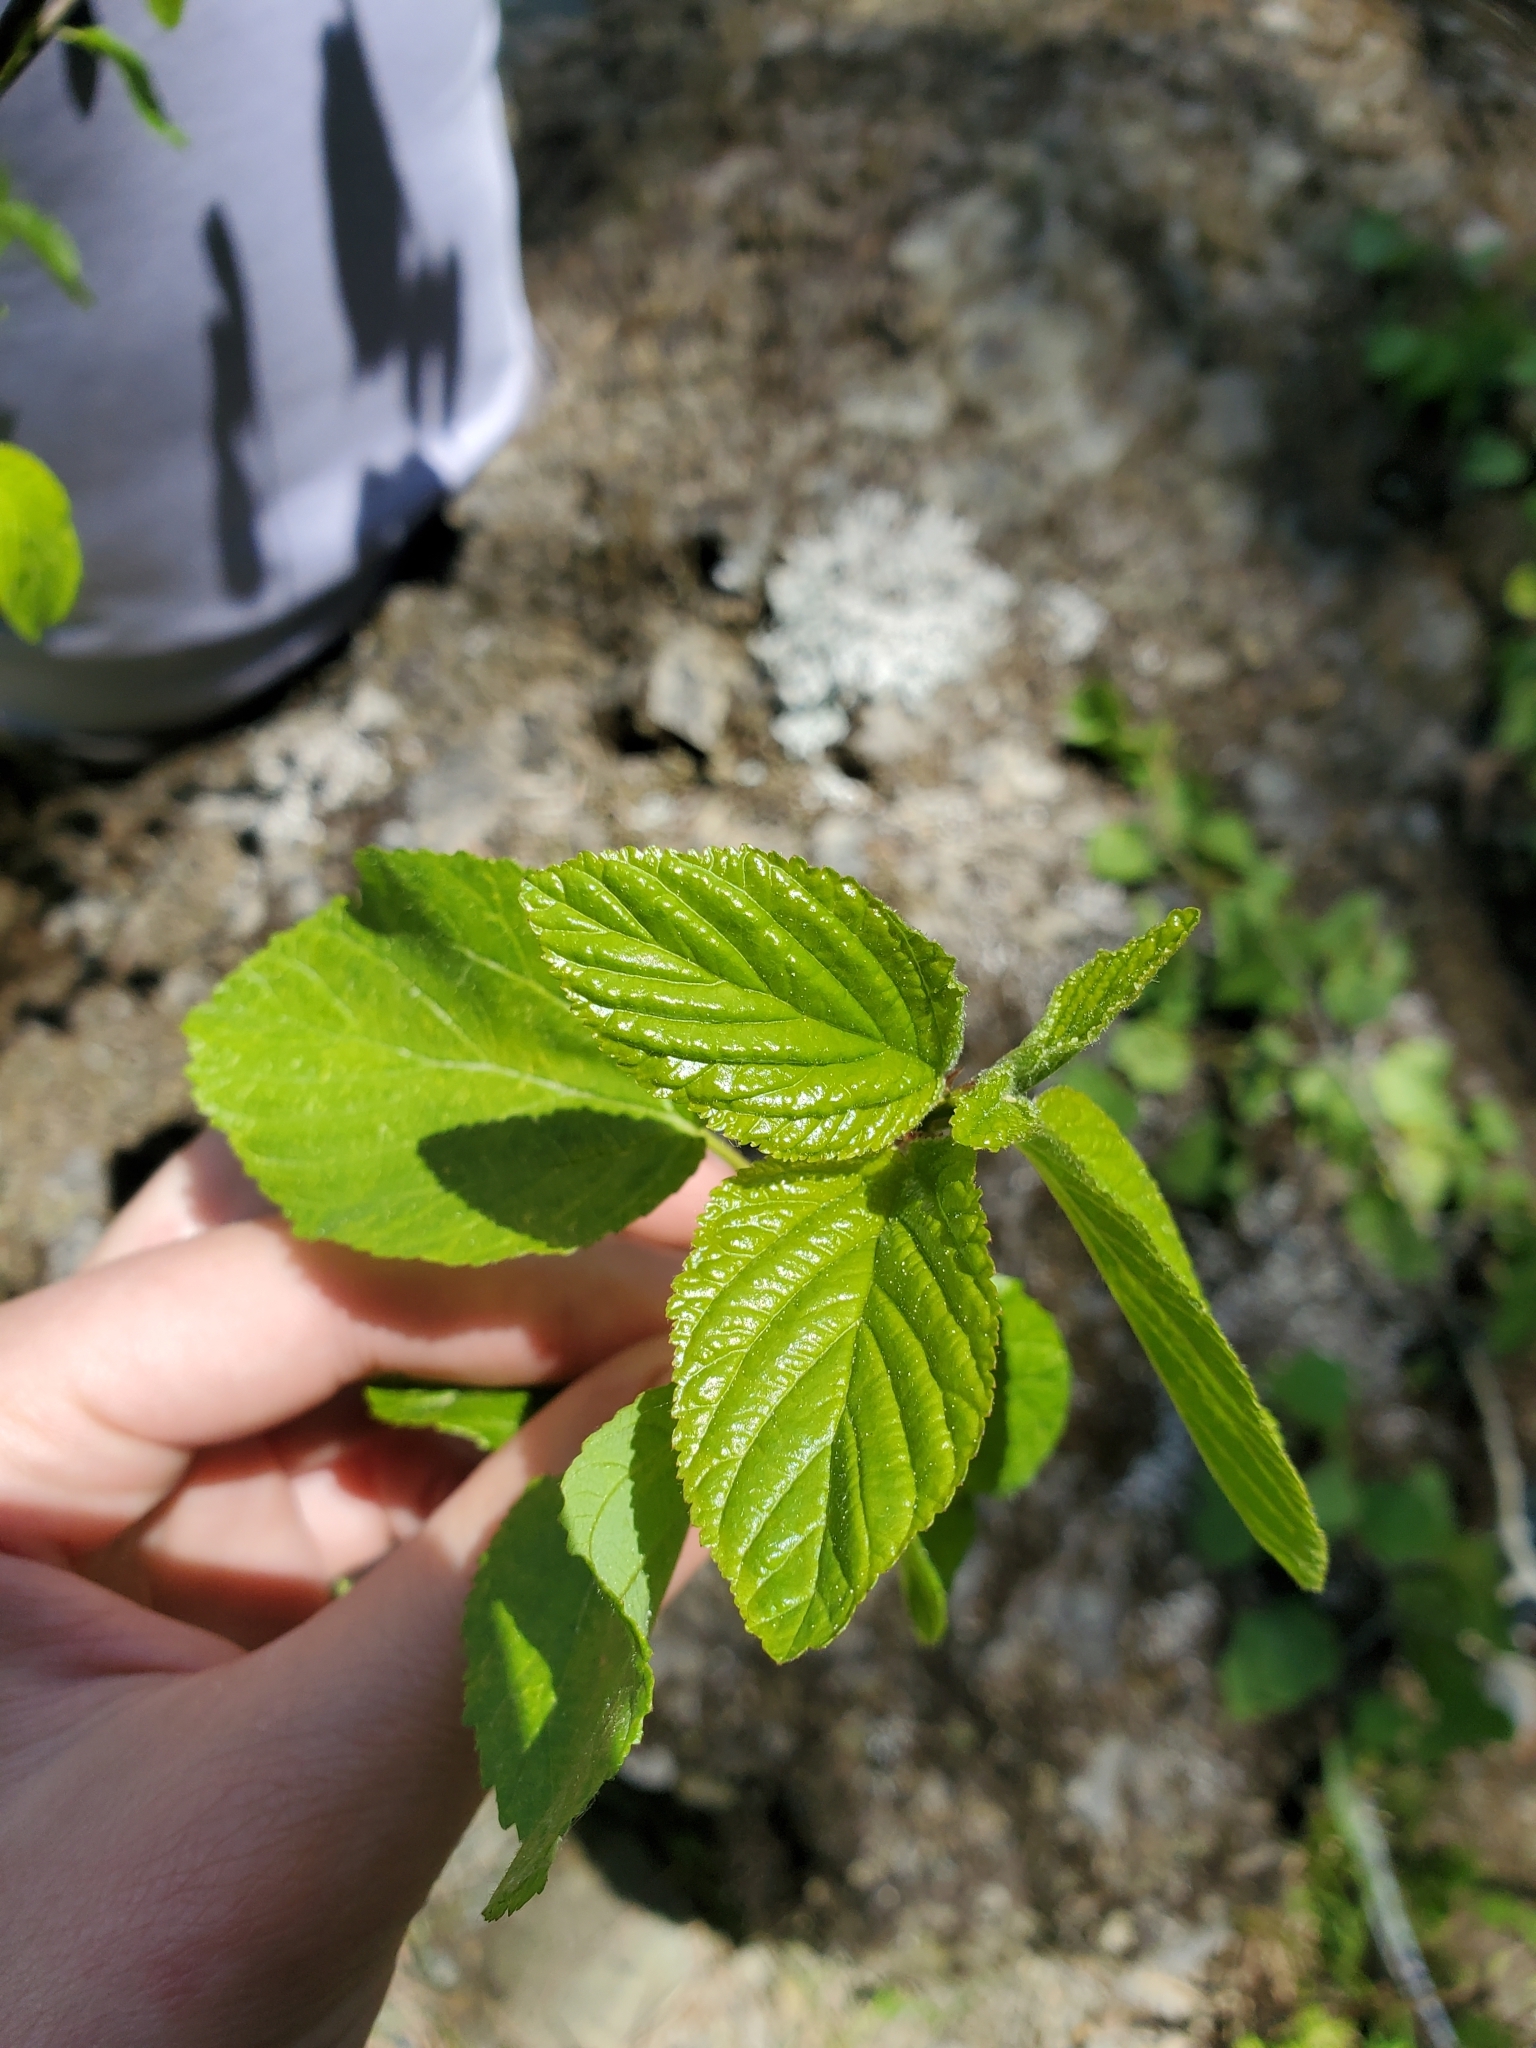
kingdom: Plantae
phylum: Tracheophyta
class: Magnoliopsida
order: Rosales
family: Rhamnaceae
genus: Ceanothus
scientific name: Ceanothus sanguineus
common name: Teatree
